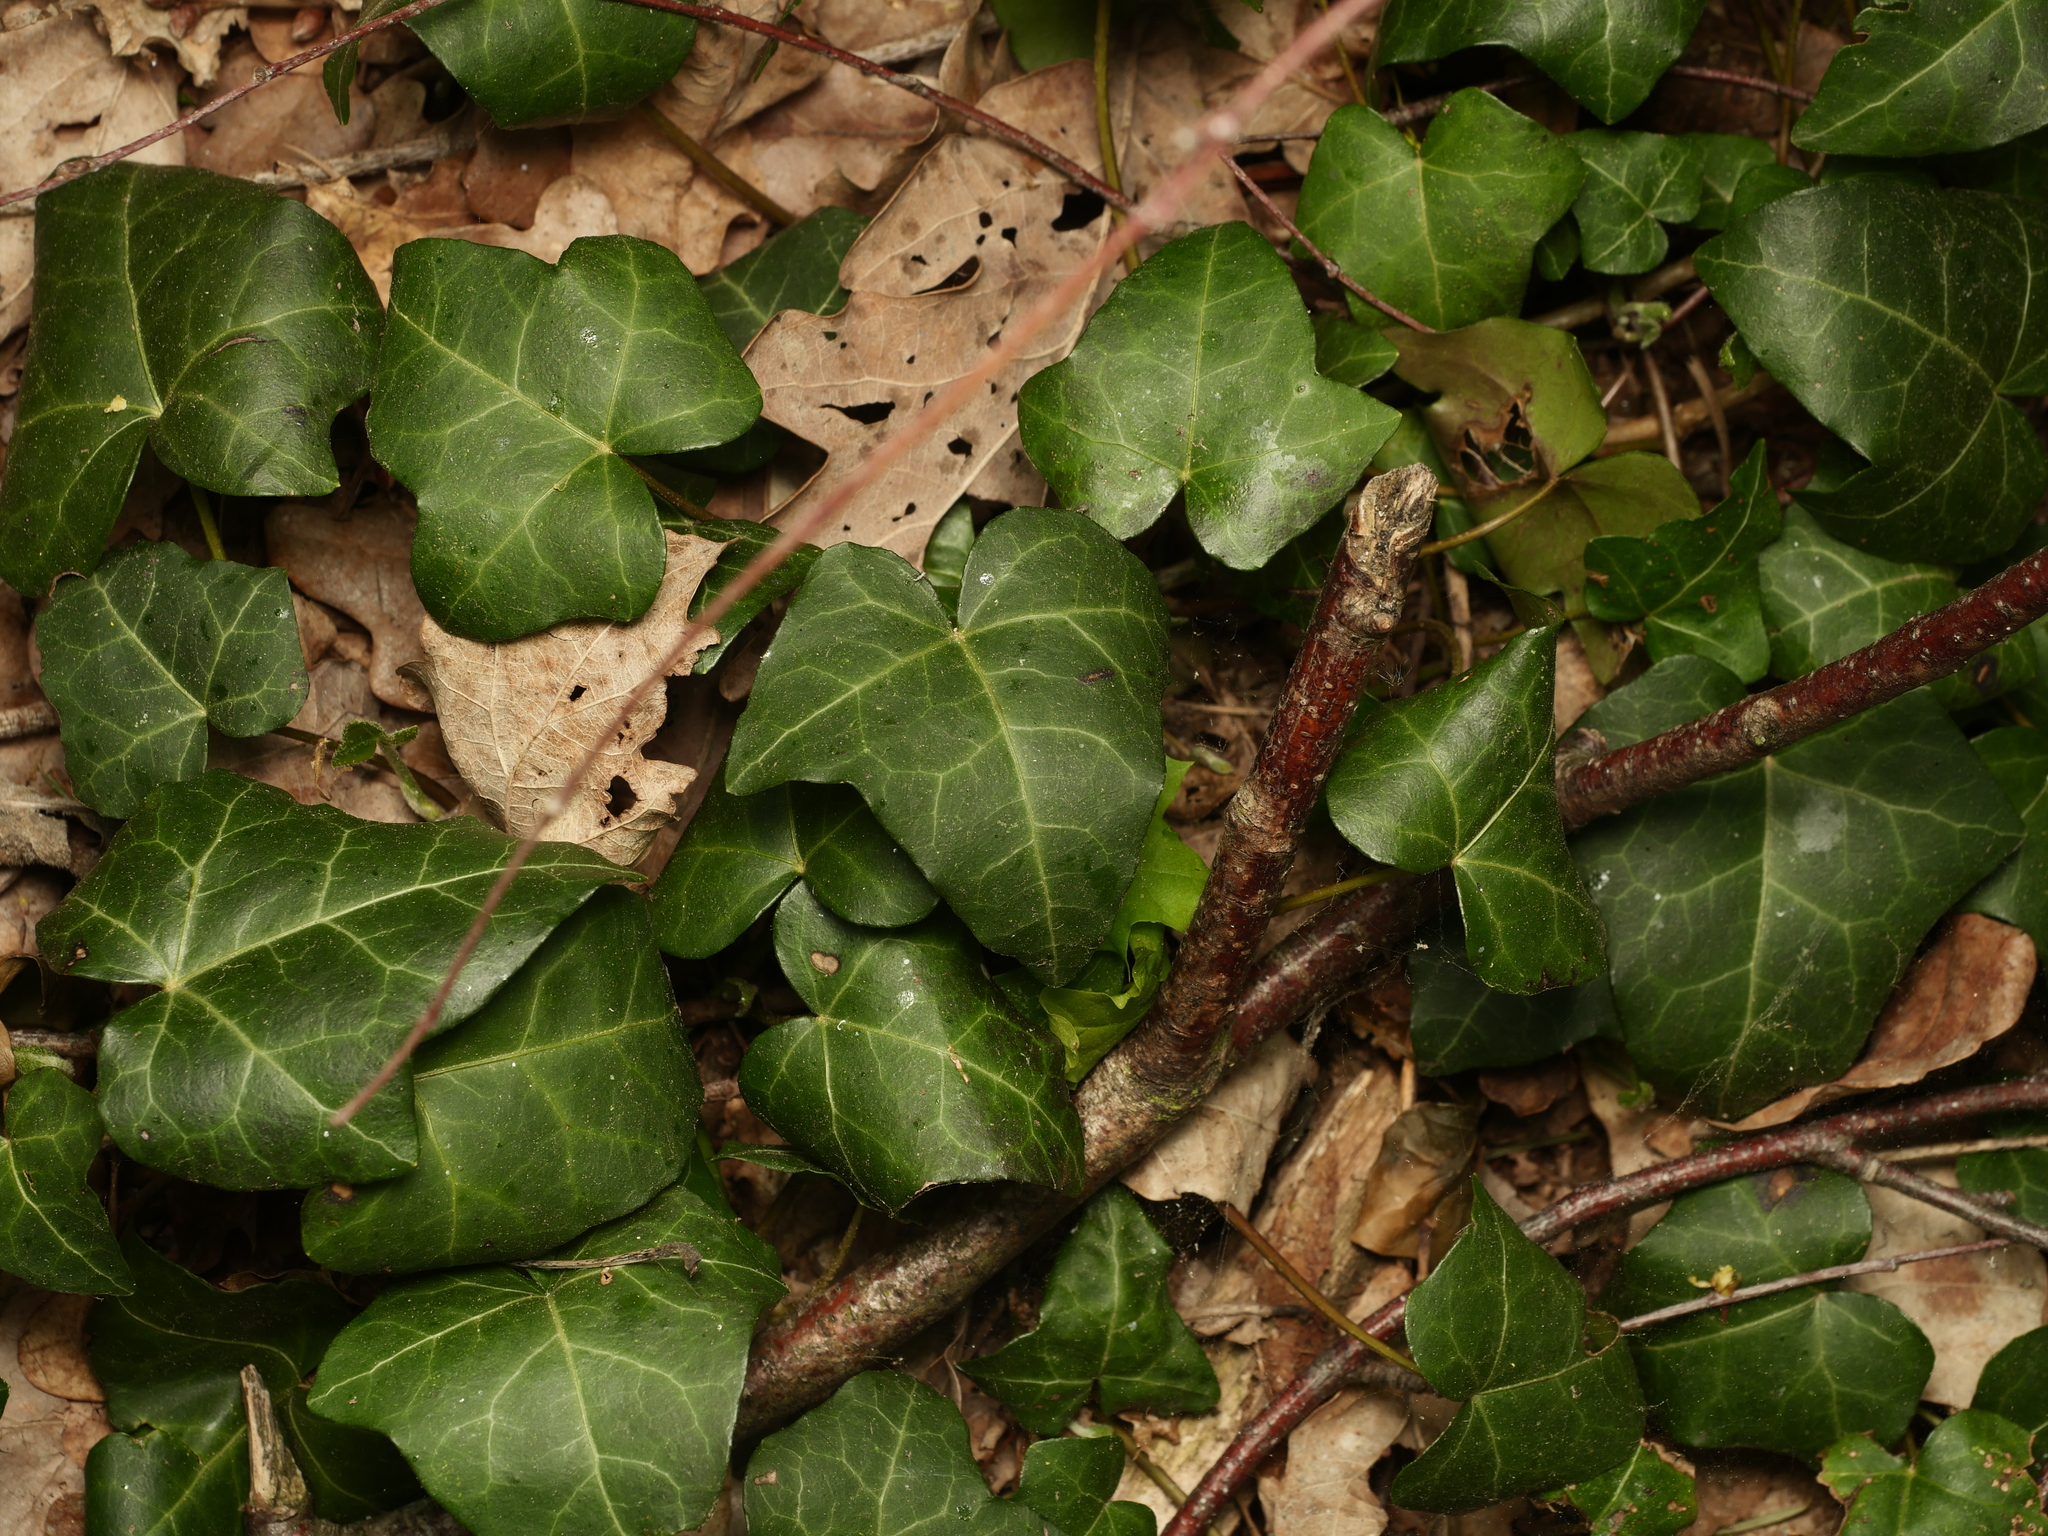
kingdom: Plantae
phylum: Tracheophyta
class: Magnoliopsida
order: Apiales
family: Araliaceae
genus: Hedera
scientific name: Hedera helix
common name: Ivy
